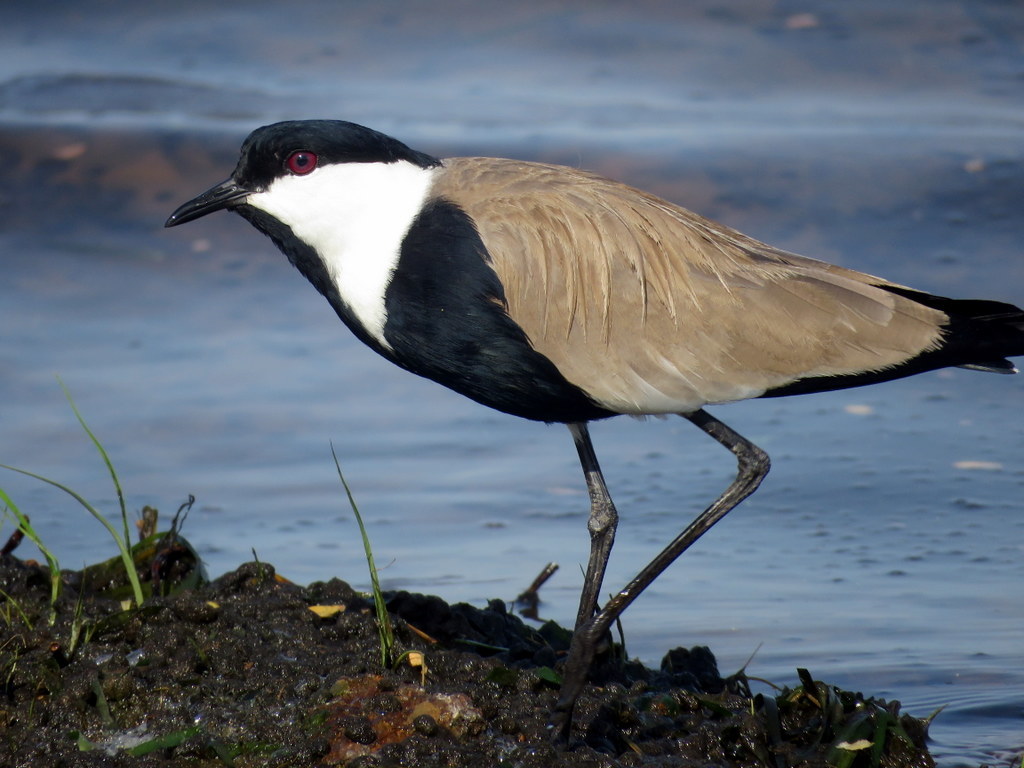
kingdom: Animalia
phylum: Chordata
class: Aves
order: Charadriiformes
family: Charadriidae
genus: Vanellus
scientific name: Vanellus spinosus
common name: Spur-winged lapwing
